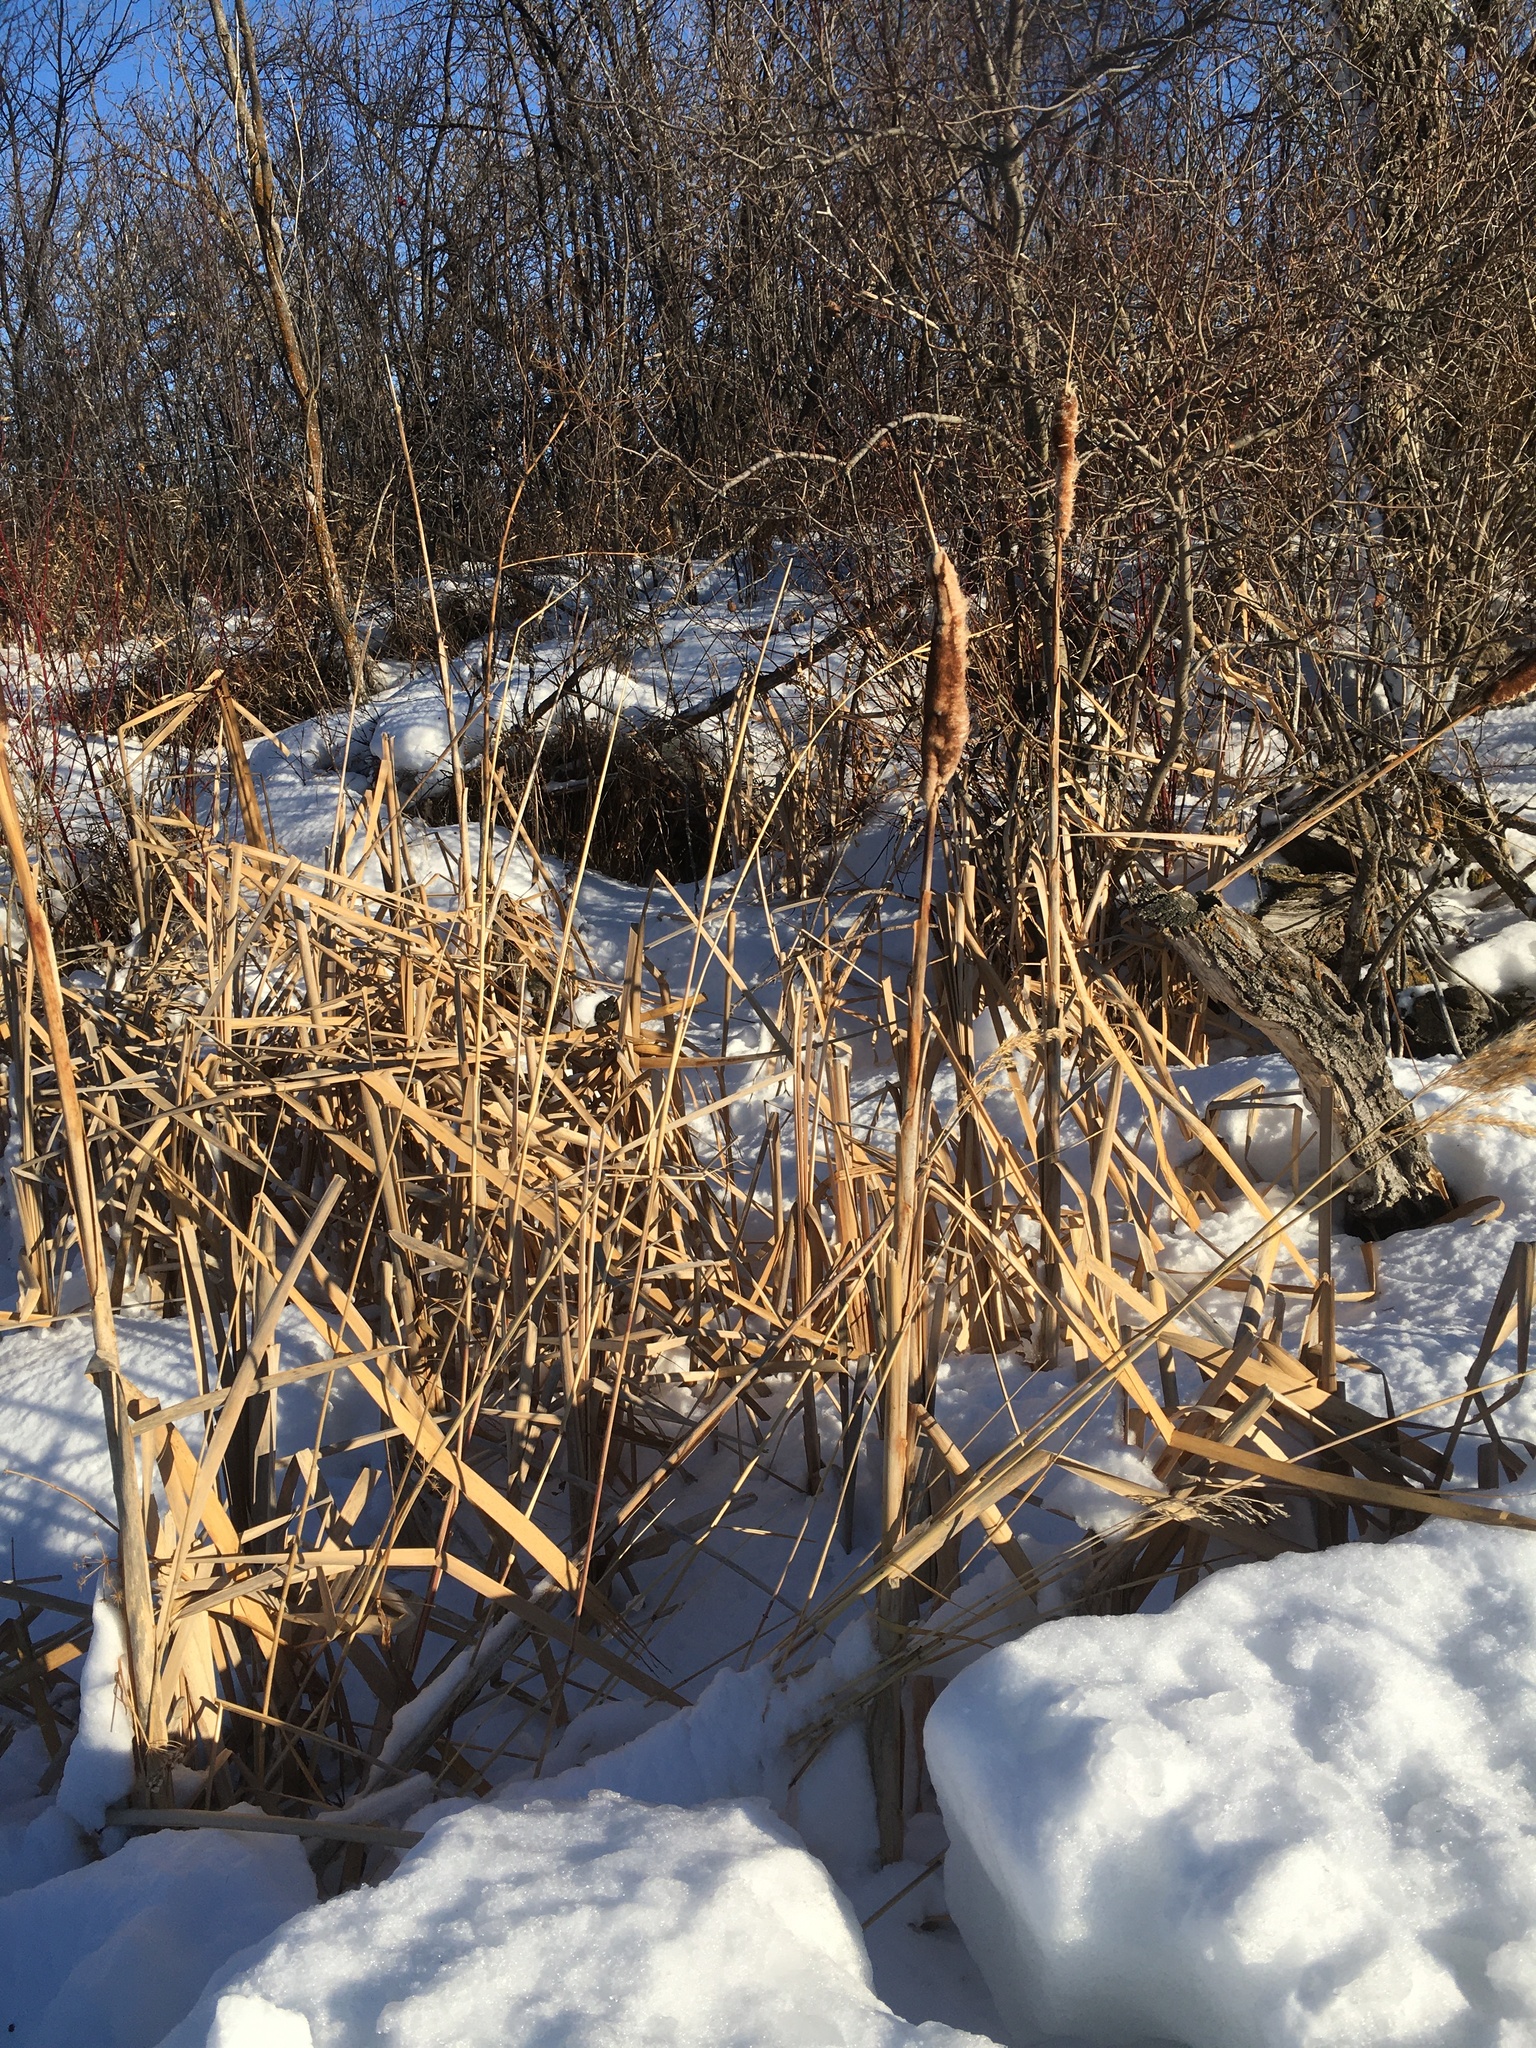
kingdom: Plantae
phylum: Tracheophyta
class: Liliopsida
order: Poales
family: Typhaceae
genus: Typha
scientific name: Typha latifolia
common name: Broadleaf cattail
